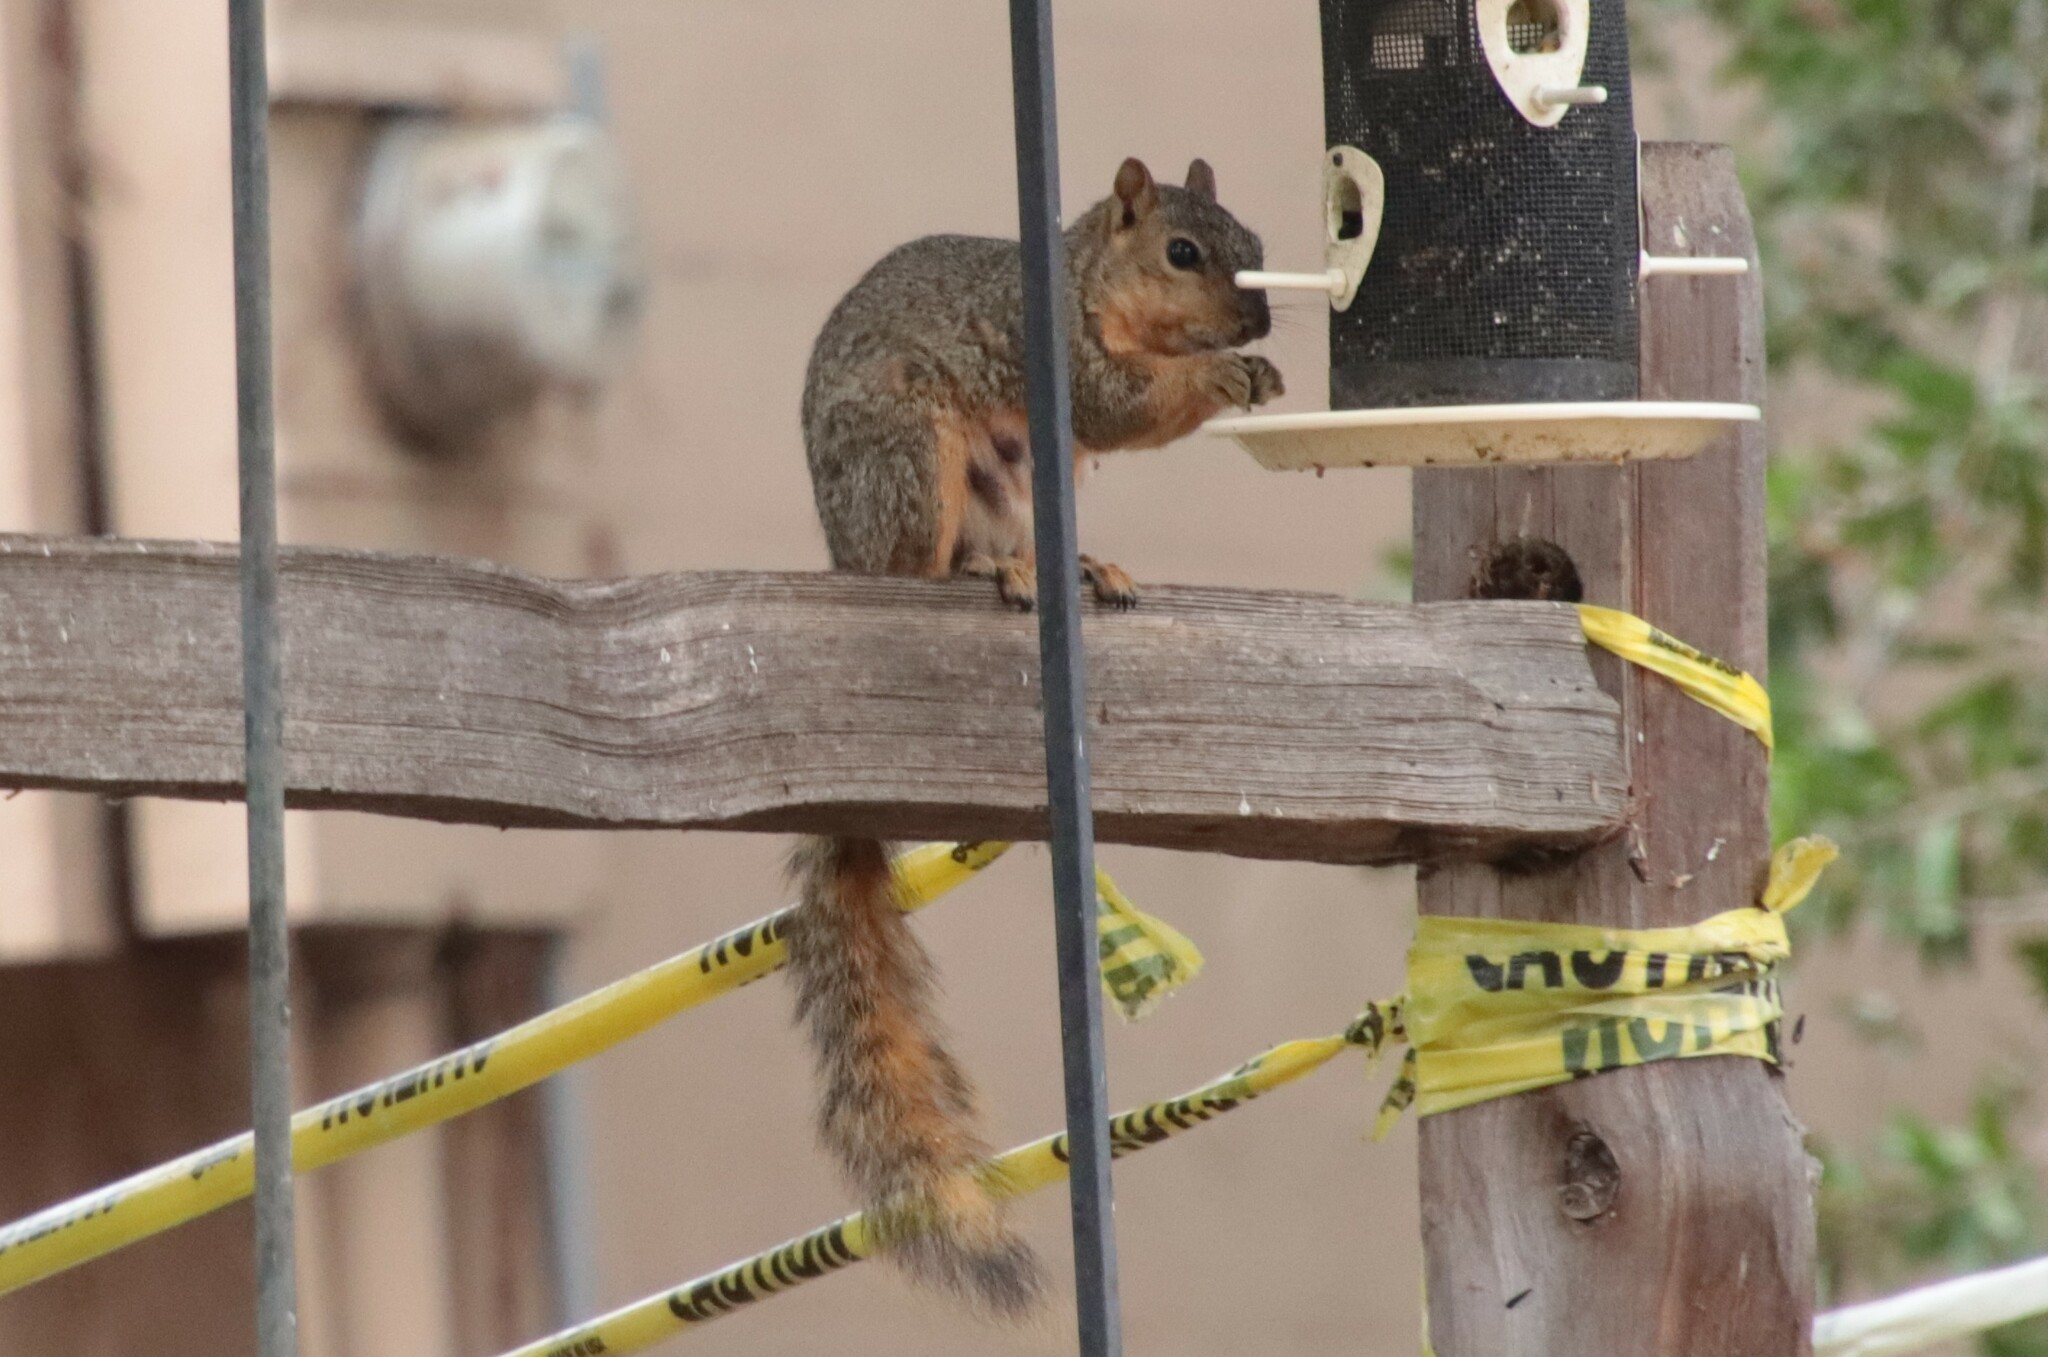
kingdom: Animalia
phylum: Chordata
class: Mammalia
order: Rodentia
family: Sciuridae
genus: Sciurus
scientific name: Sciurus niger
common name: Fox squirrel
